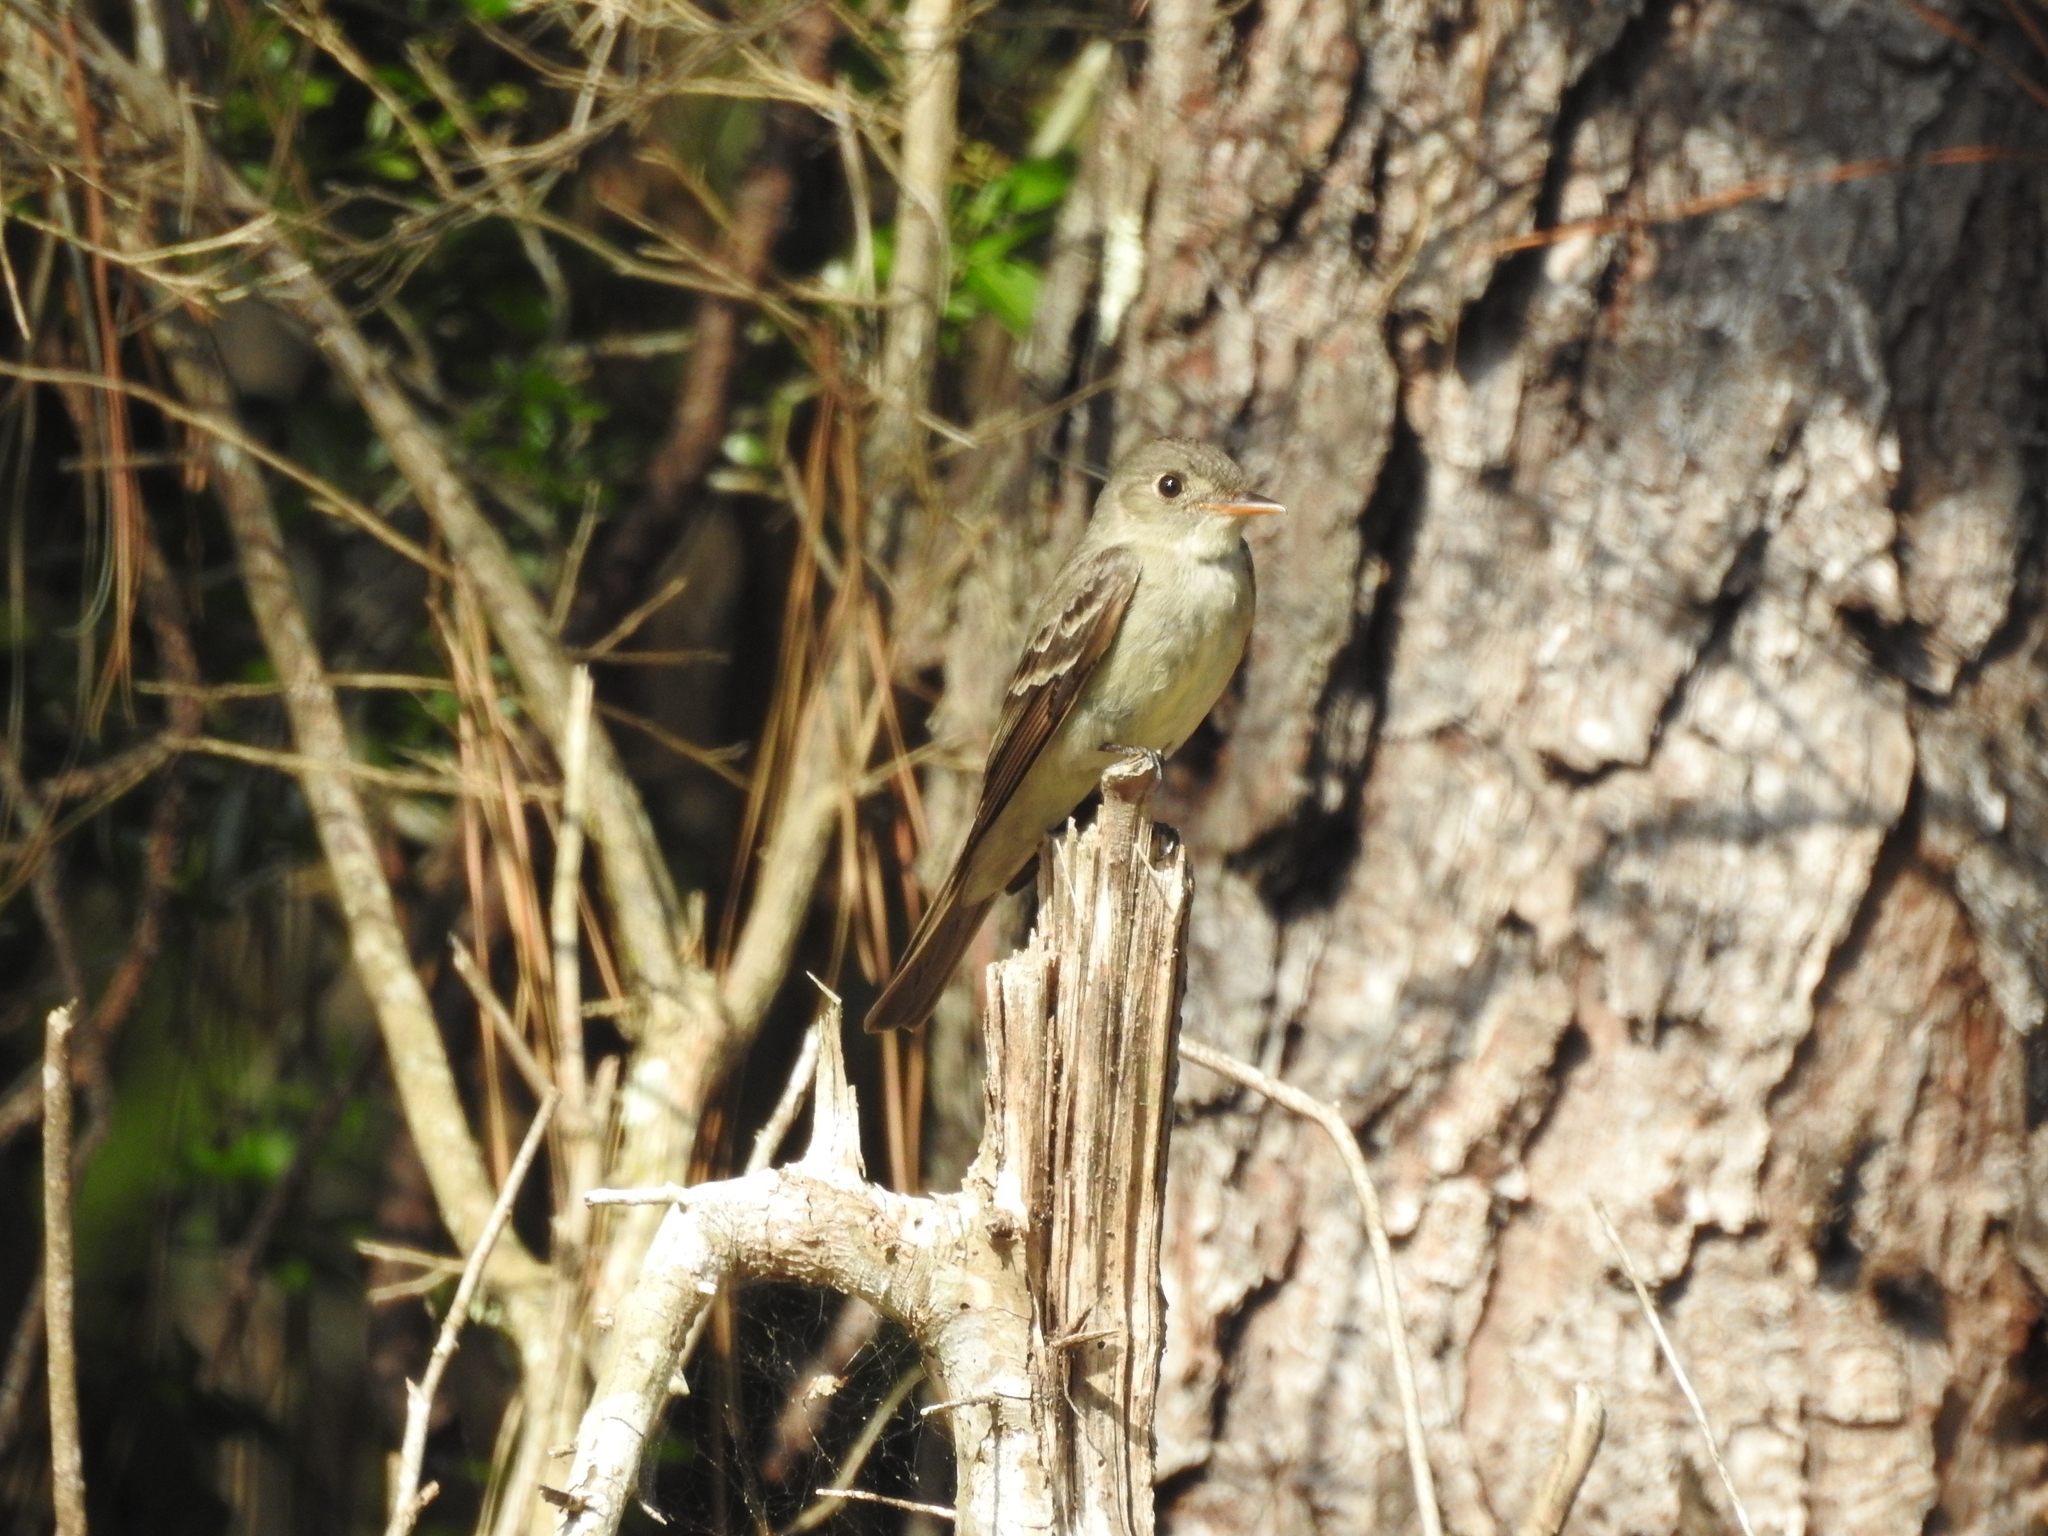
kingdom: Animalia
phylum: Chordata
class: Aves
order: Passeriformes
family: Tyrannidae
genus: Contopus
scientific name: Contopus virens
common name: Eastern wood-pewee
